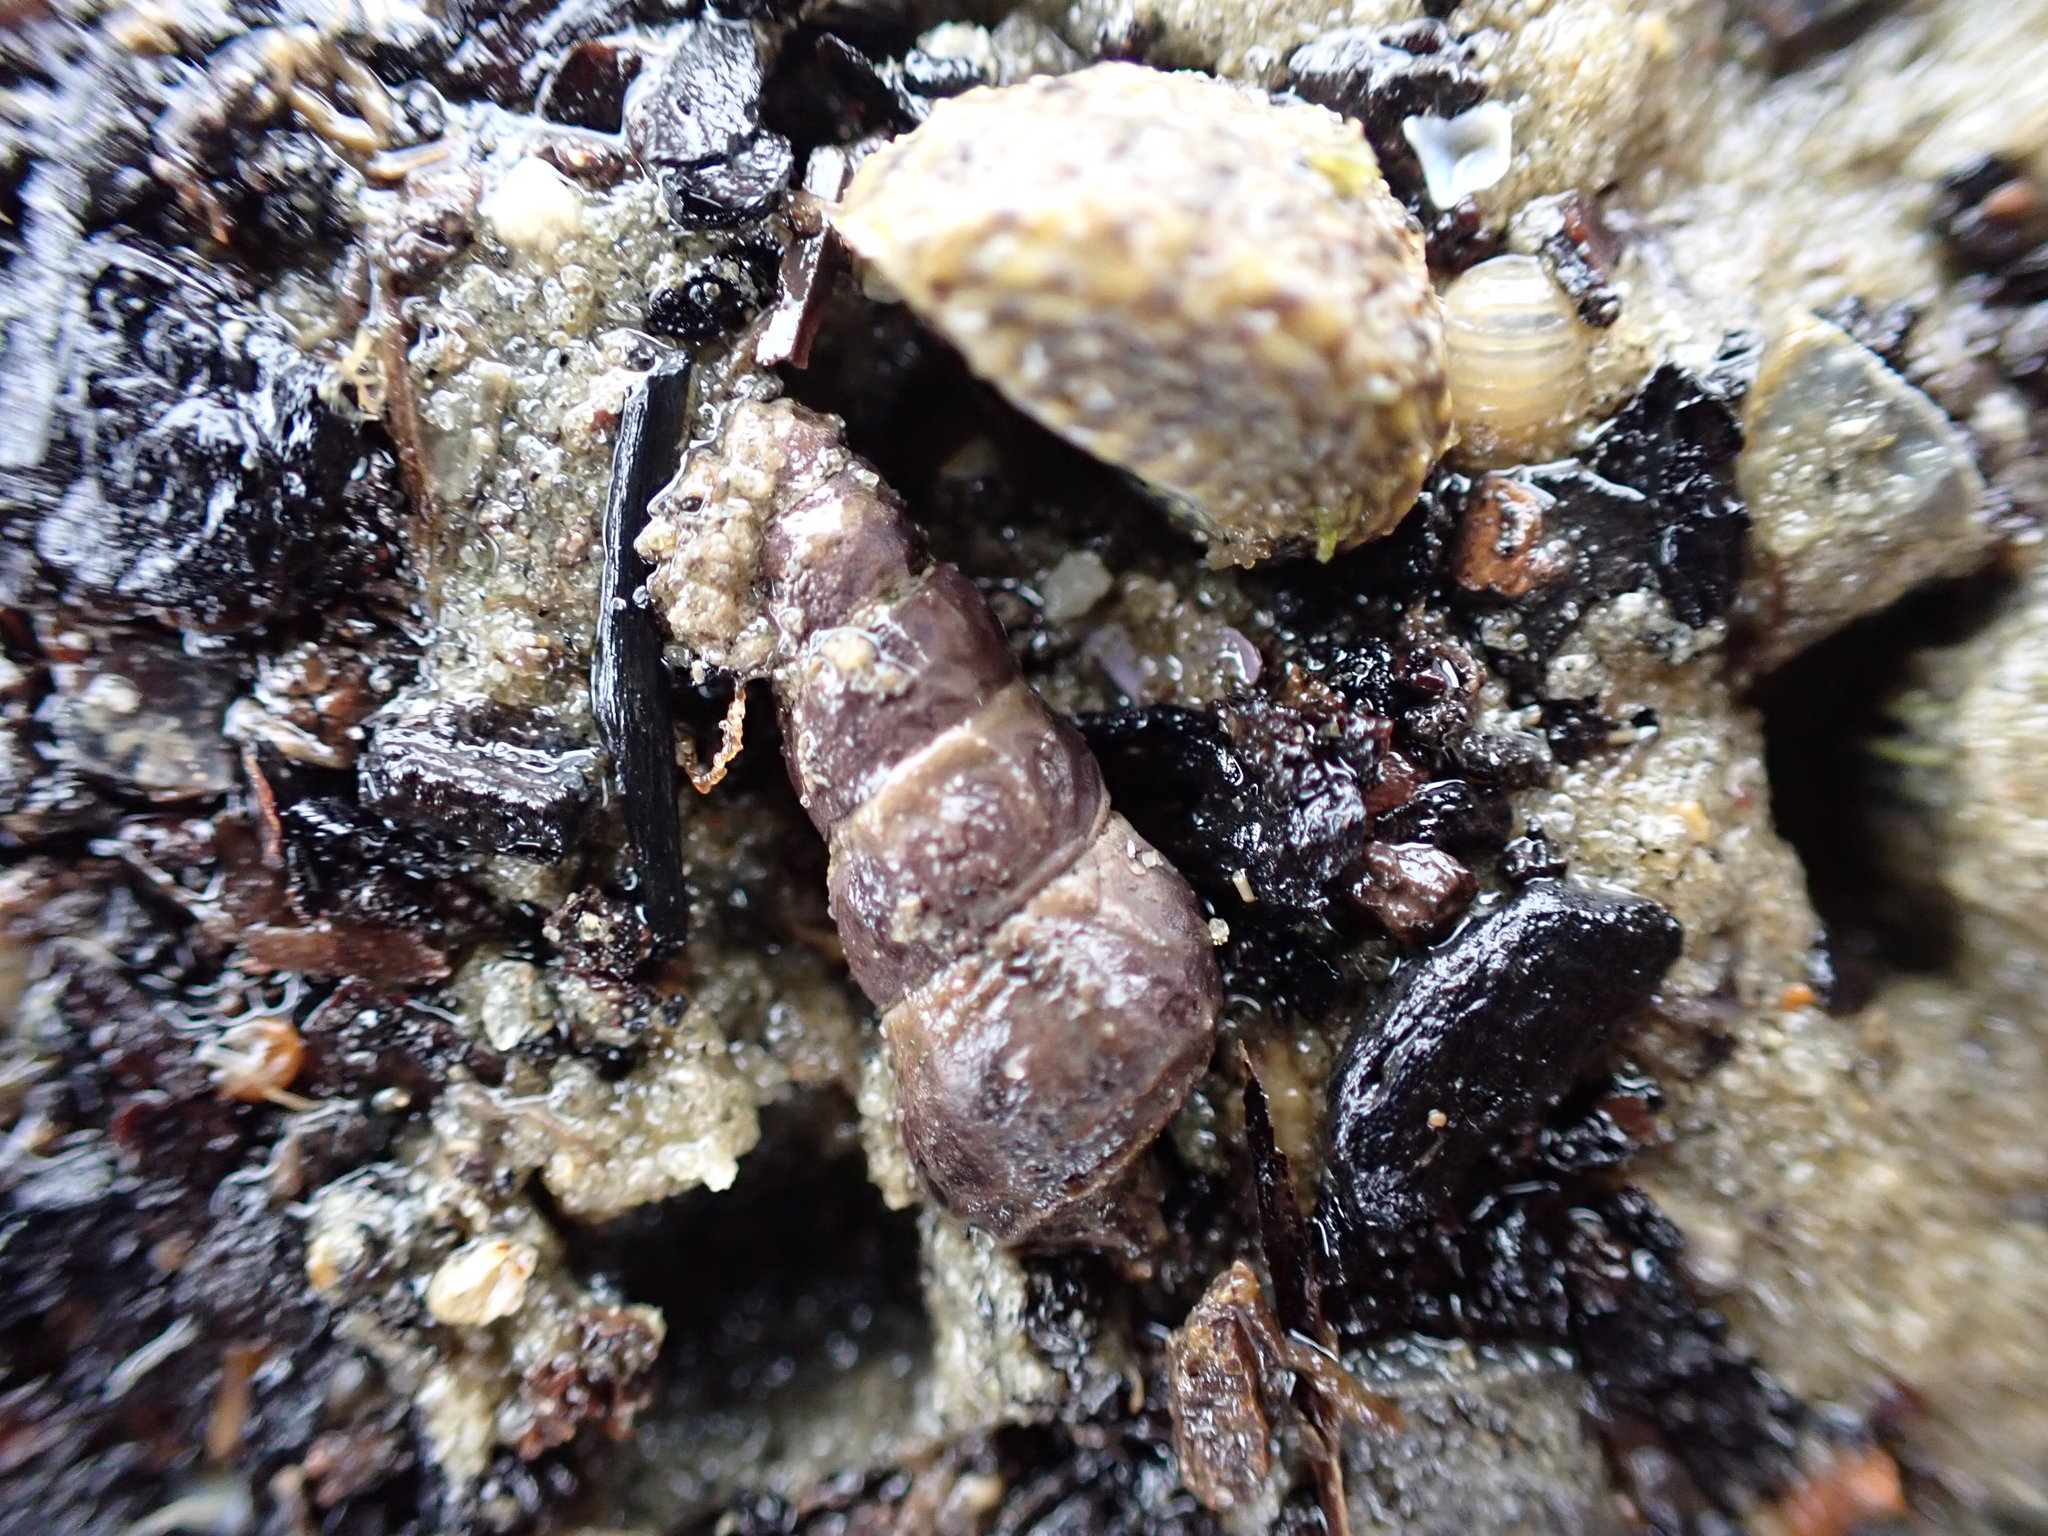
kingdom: Animalia
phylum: Mollusca
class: Gastropoda
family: Batillariidae
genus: Zeacumantus
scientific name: Zeacumantus lutulentus
